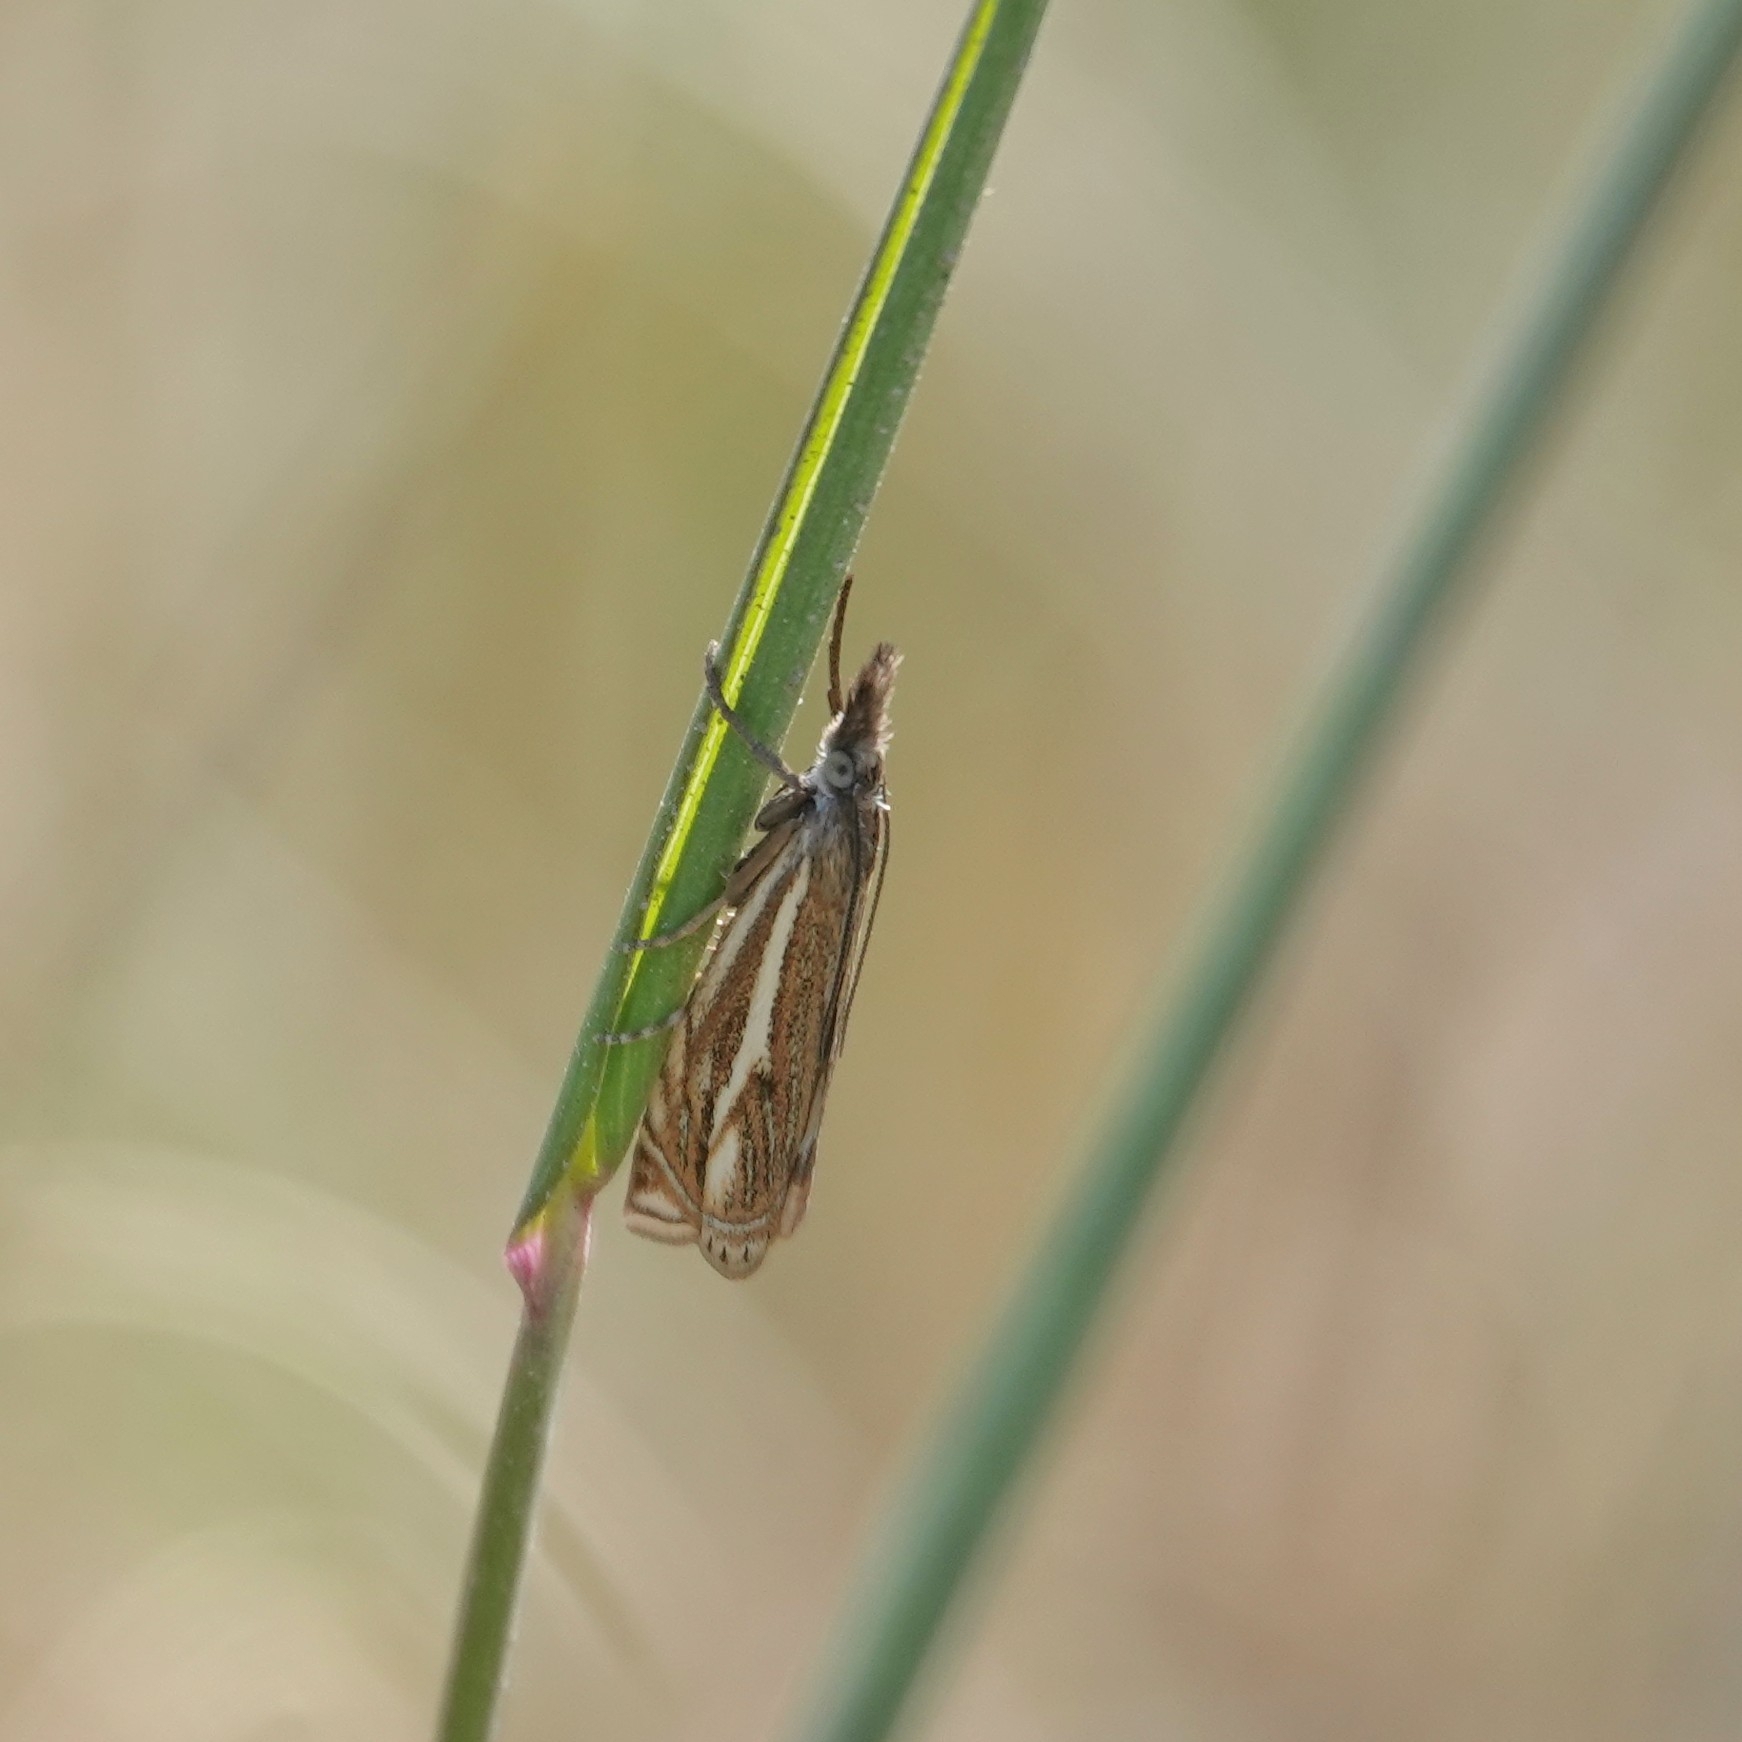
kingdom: Animalia
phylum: Arthropoda
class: Insecta
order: Lepidoptera
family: Crambidae
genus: Crambus
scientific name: Crambus nemorella
